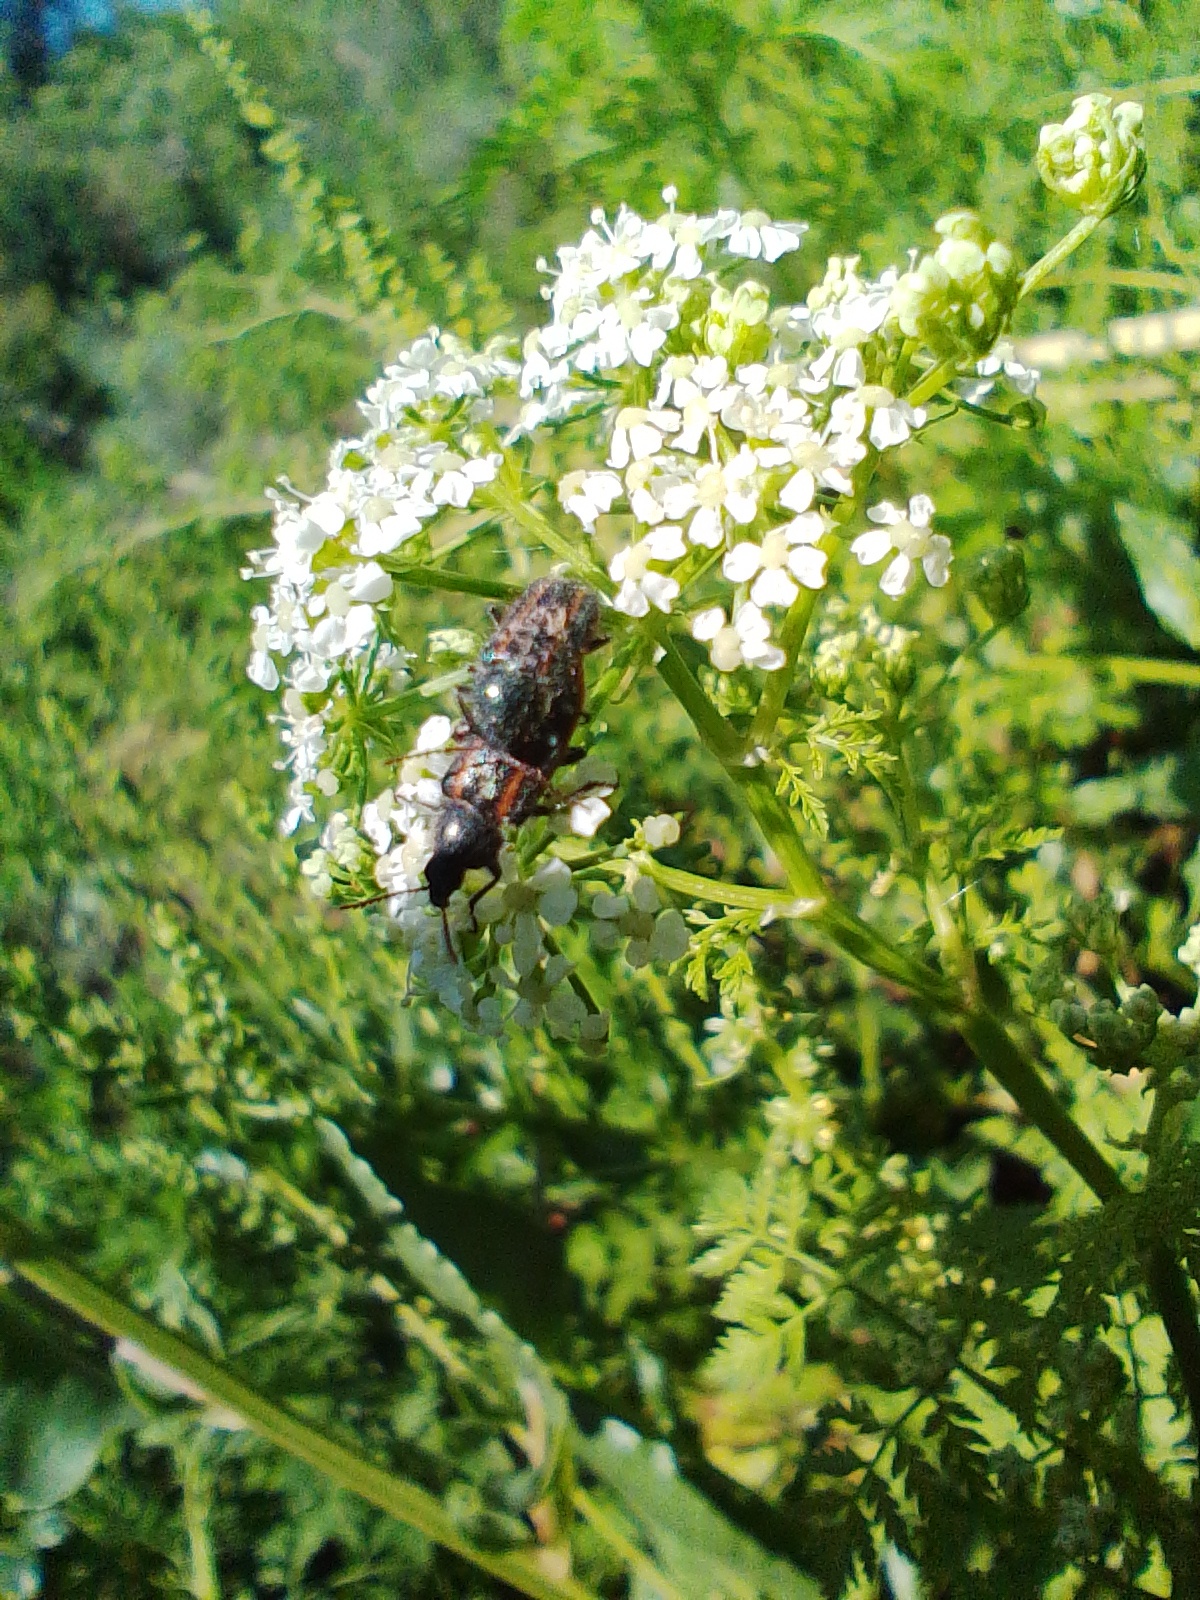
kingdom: Animalia
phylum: Arthropoda
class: Insecta
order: Coleoptera
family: Melyridae
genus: Astylus
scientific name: Astylus
